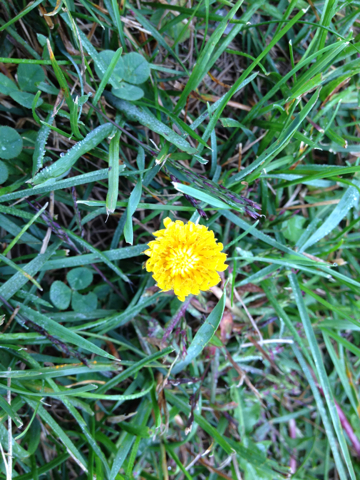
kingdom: Plantae
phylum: Tracheophyta
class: Magnoliopsida
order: Asterales
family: Asteraceae
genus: Taraxacum
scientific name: Taraxacum
